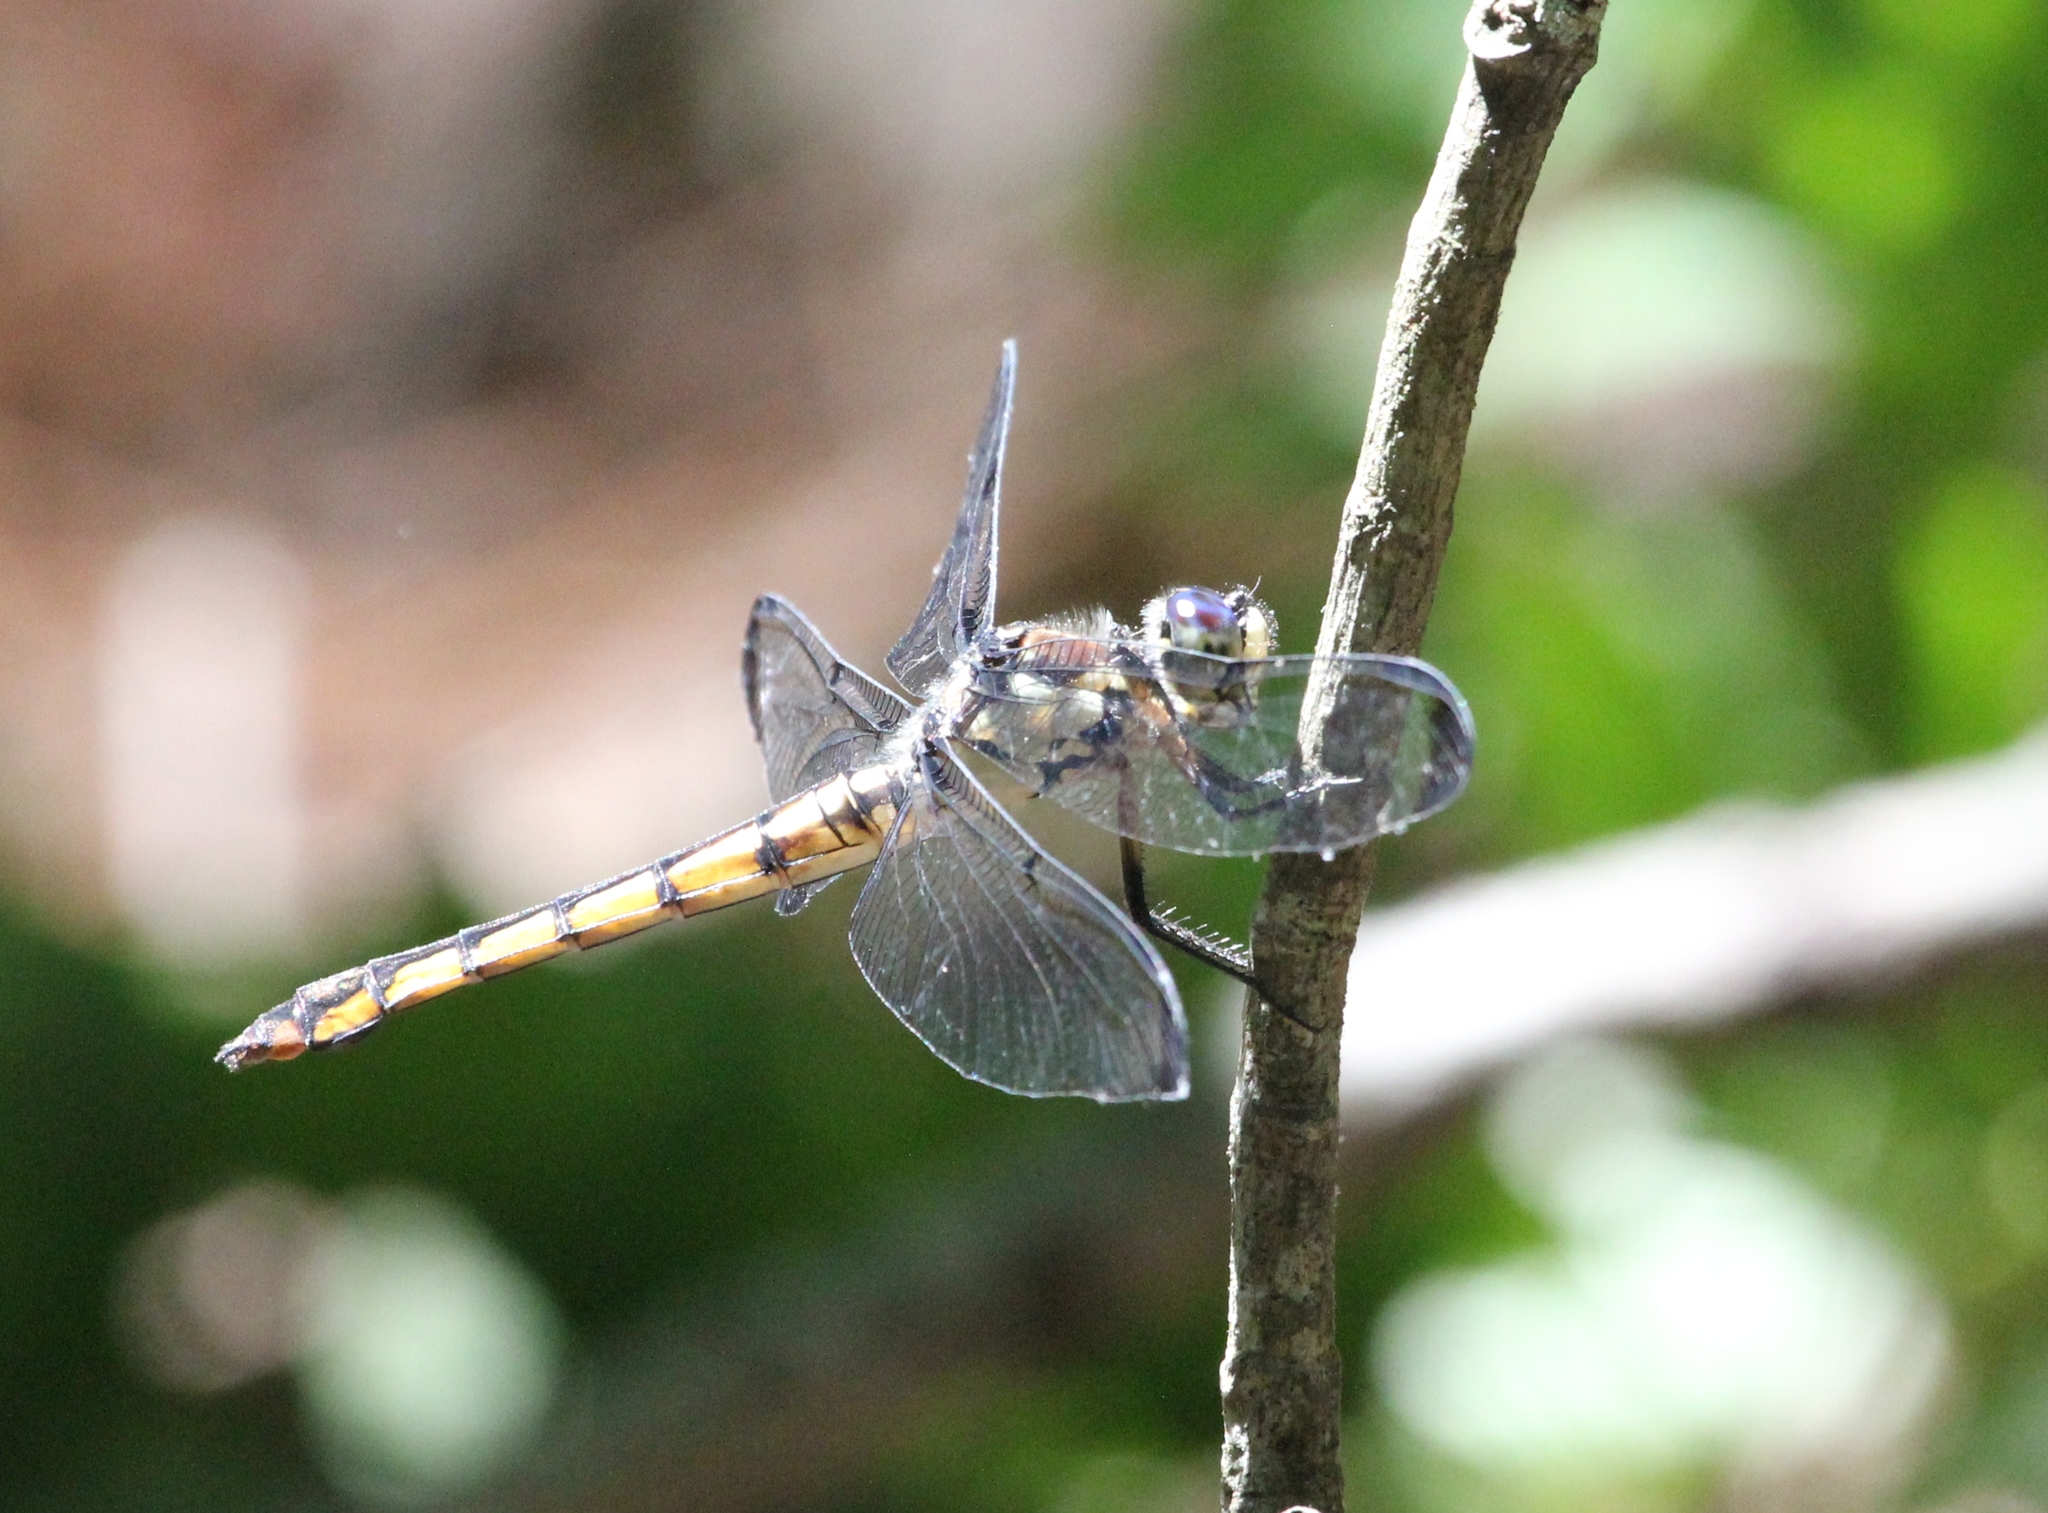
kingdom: Animalia
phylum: Arthropoda
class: Insecta
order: Odonata
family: Libellulidae
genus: Libellula
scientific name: Libellula vibrans
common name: Great blue skimmer
